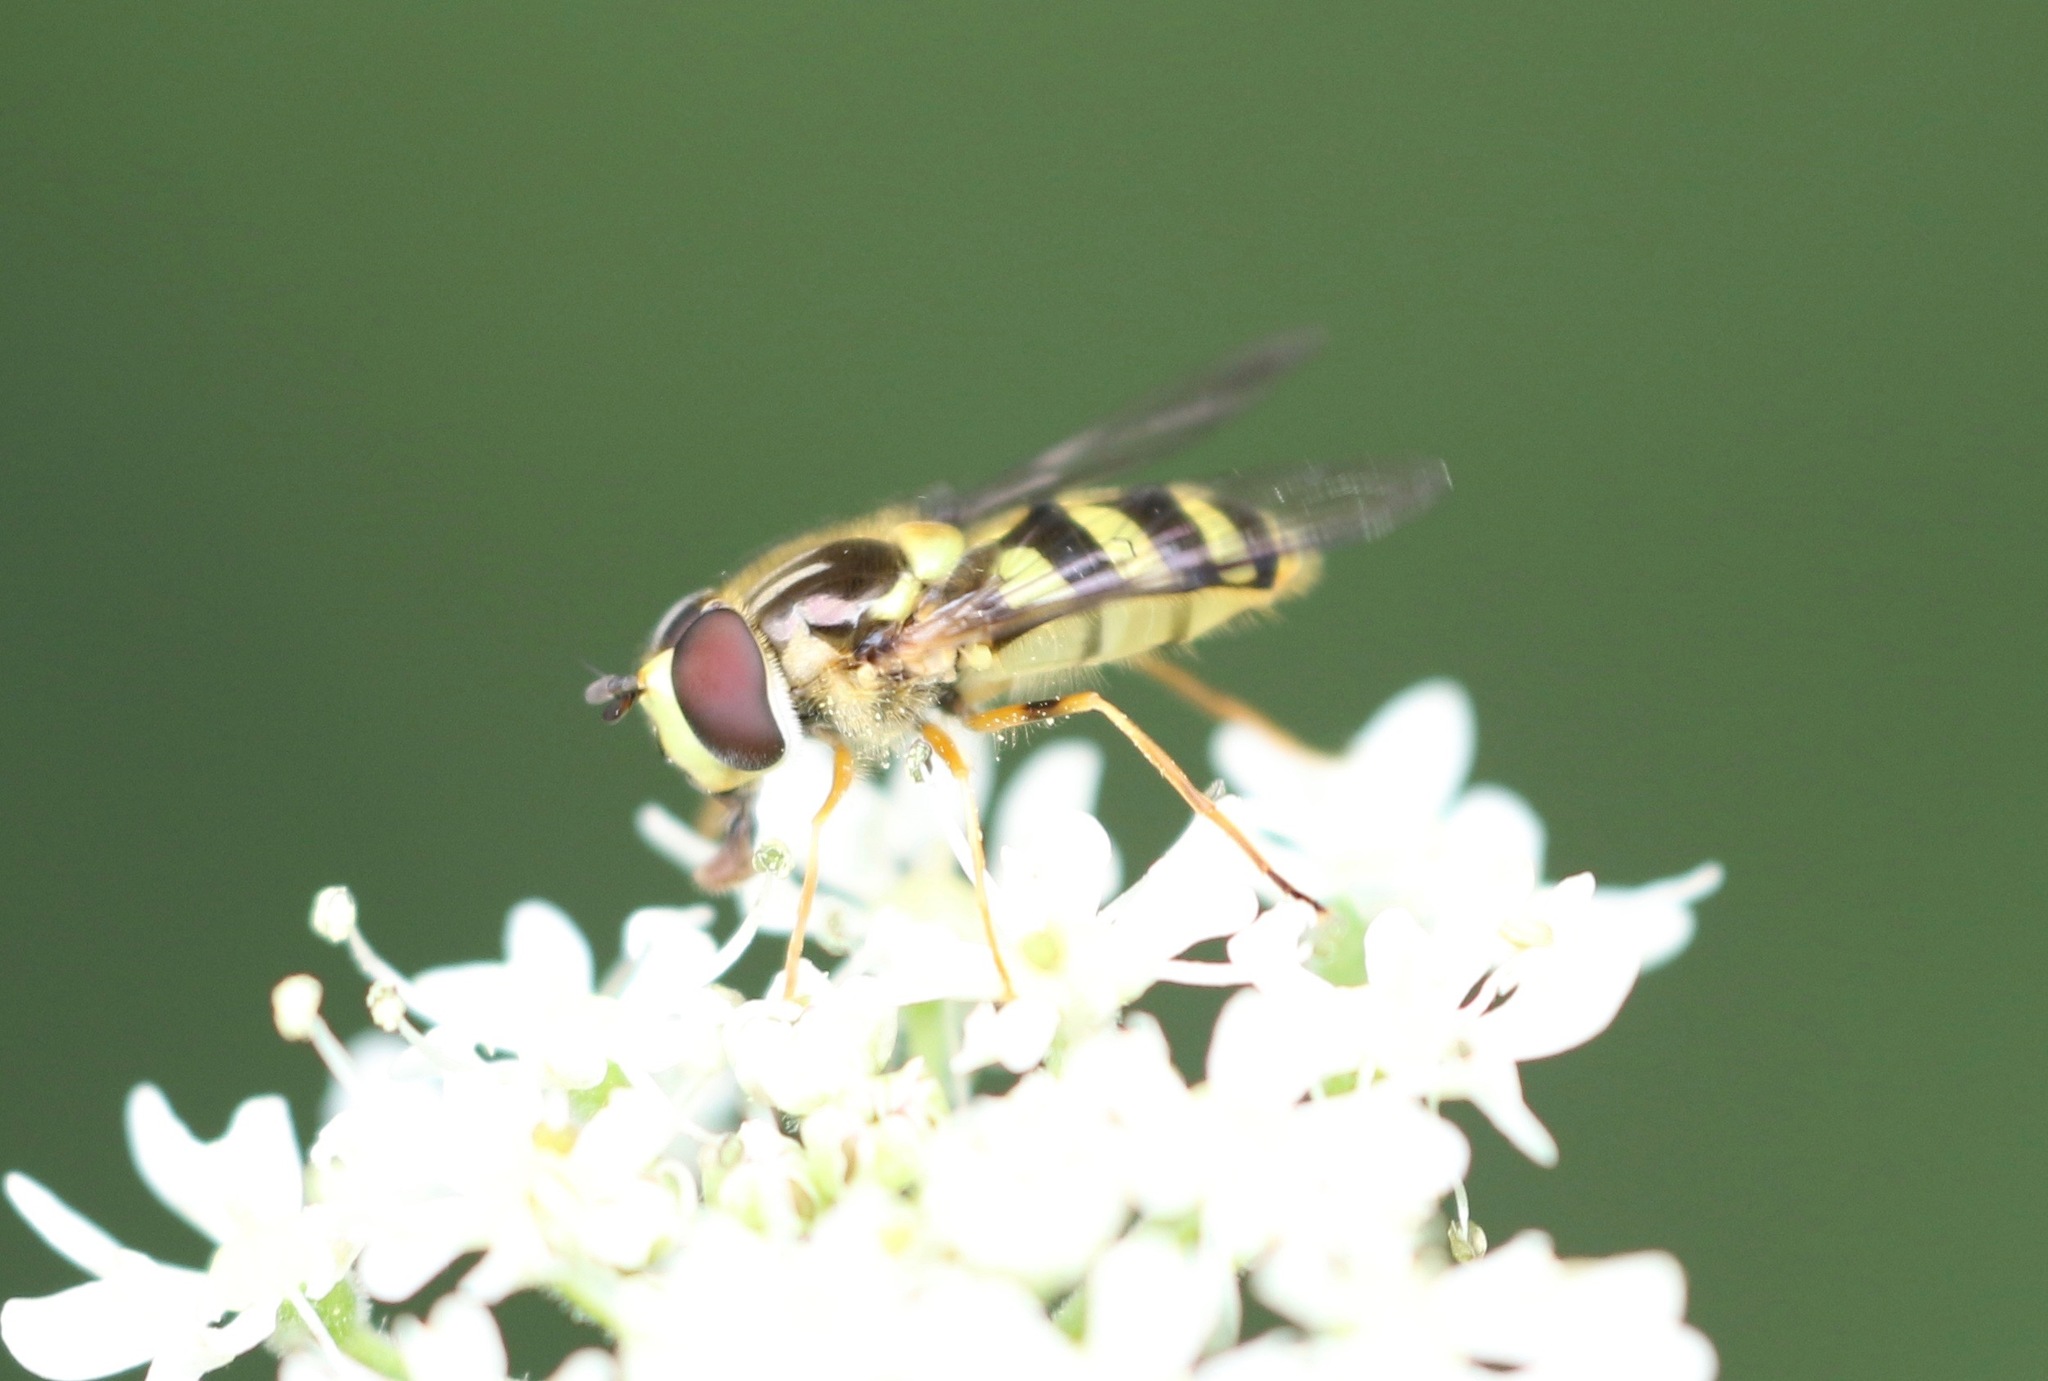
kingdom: Animalia
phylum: Arthropoda
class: Insecta
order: Diptera
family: Syrphidae
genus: Dasysyrphus
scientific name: Dasysyrphus albostriatus
